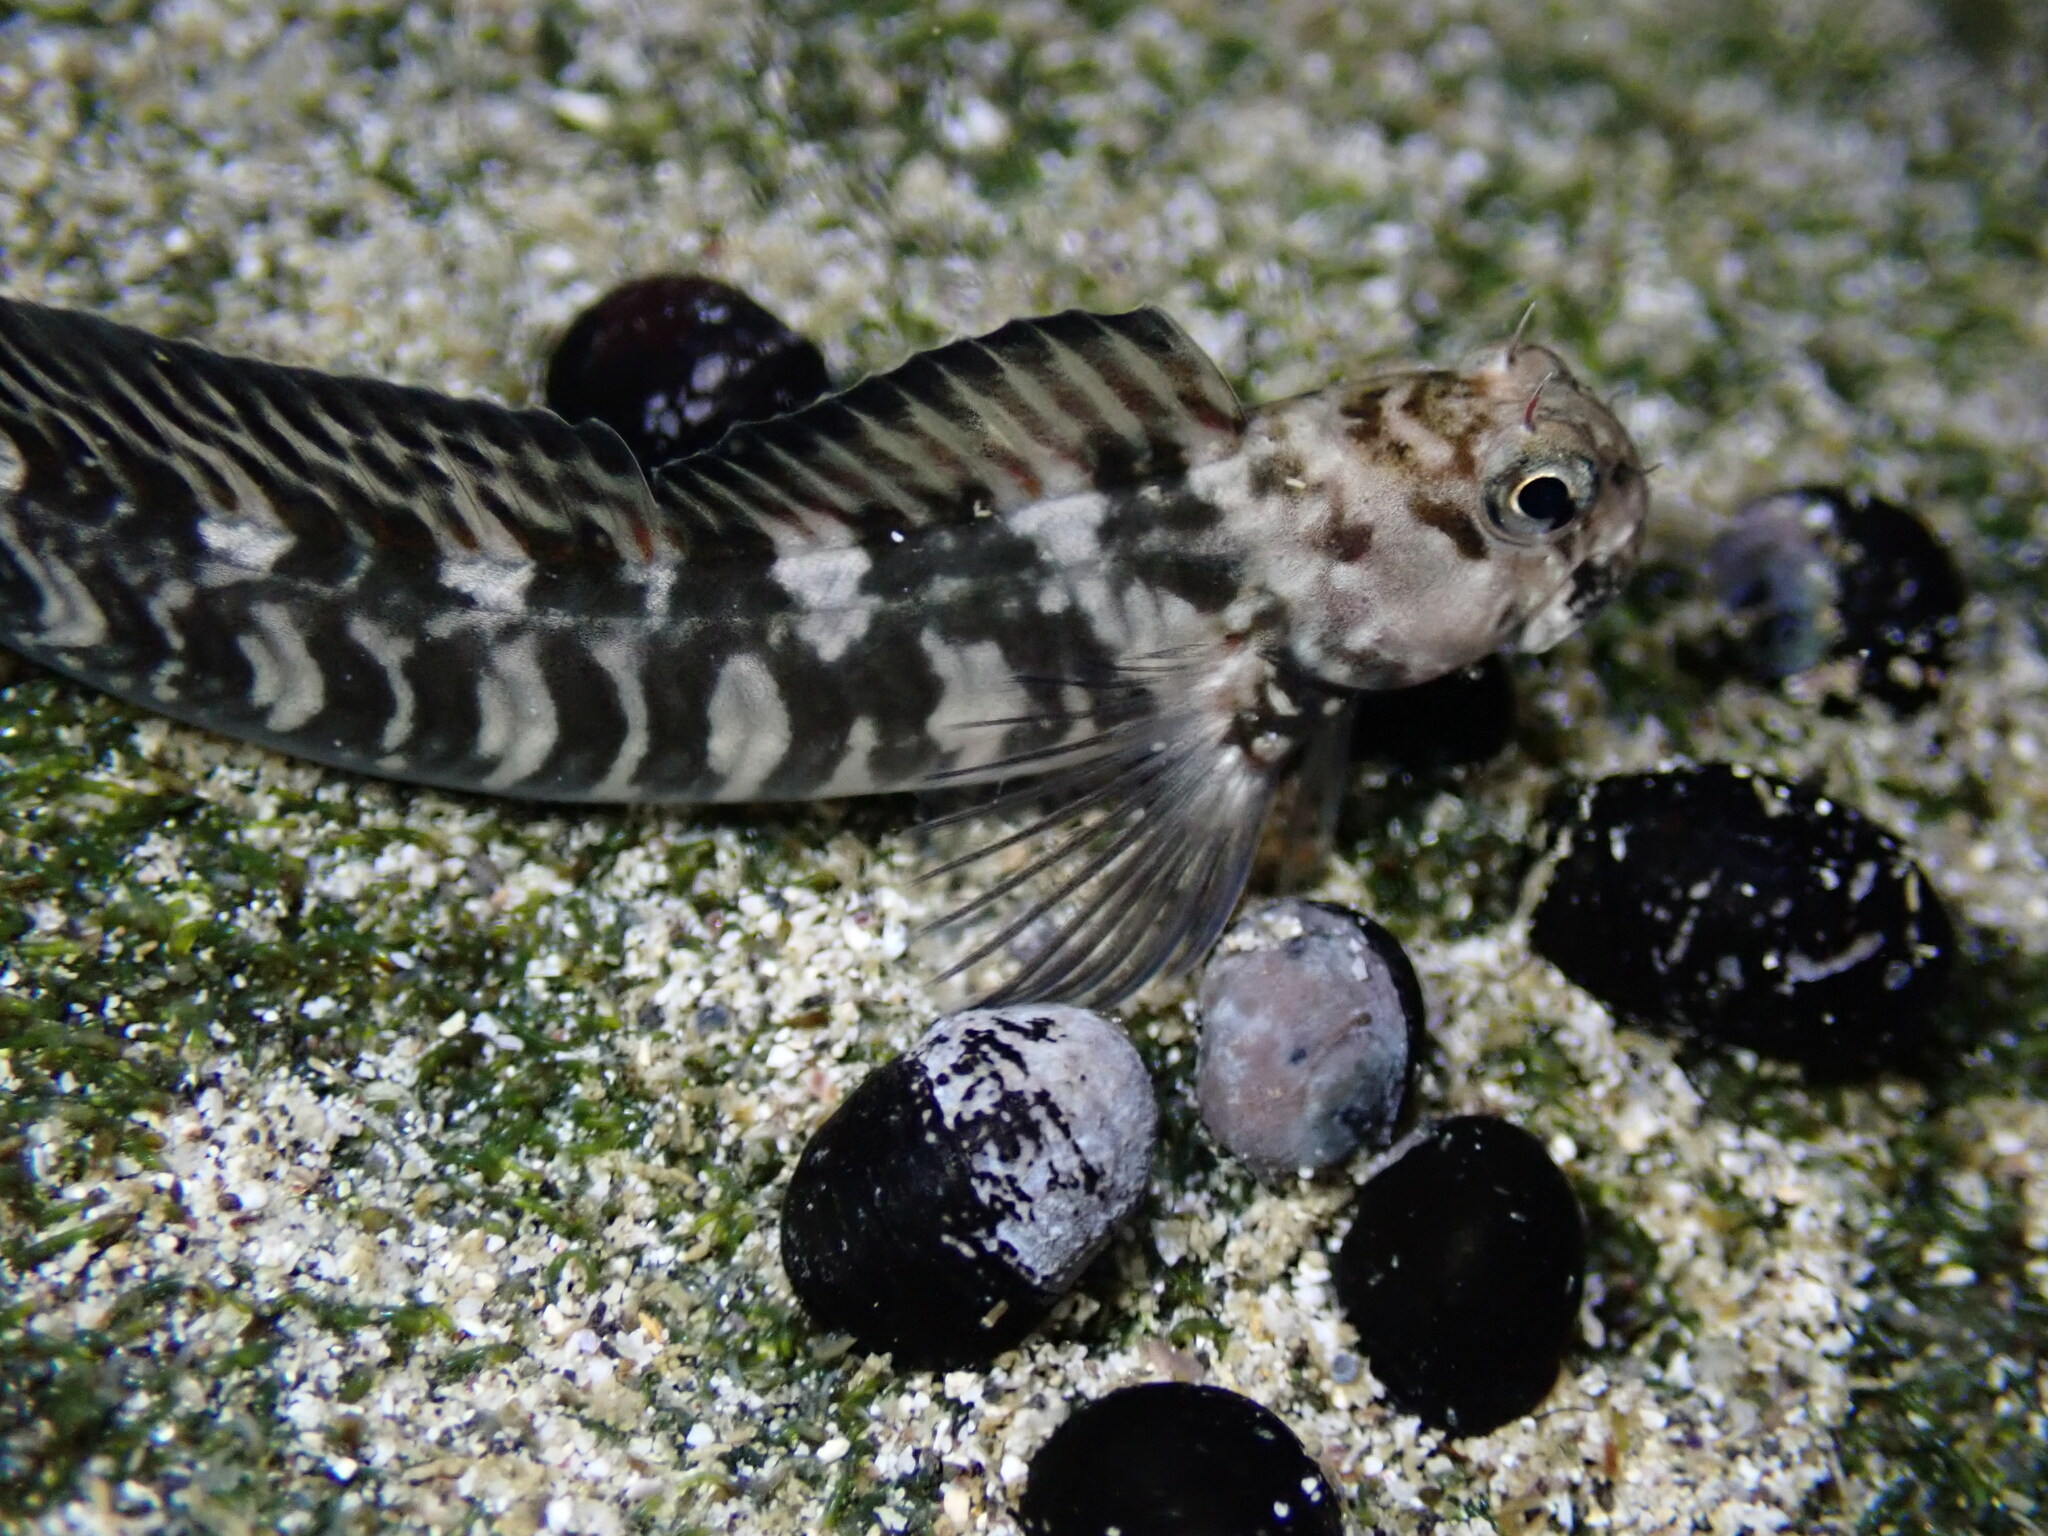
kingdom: Animalia
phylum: Chordata
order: Perciformes
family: Blenniidae
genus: Istiblennius
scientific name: Istiblennius zebra
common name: Zebra blenny
